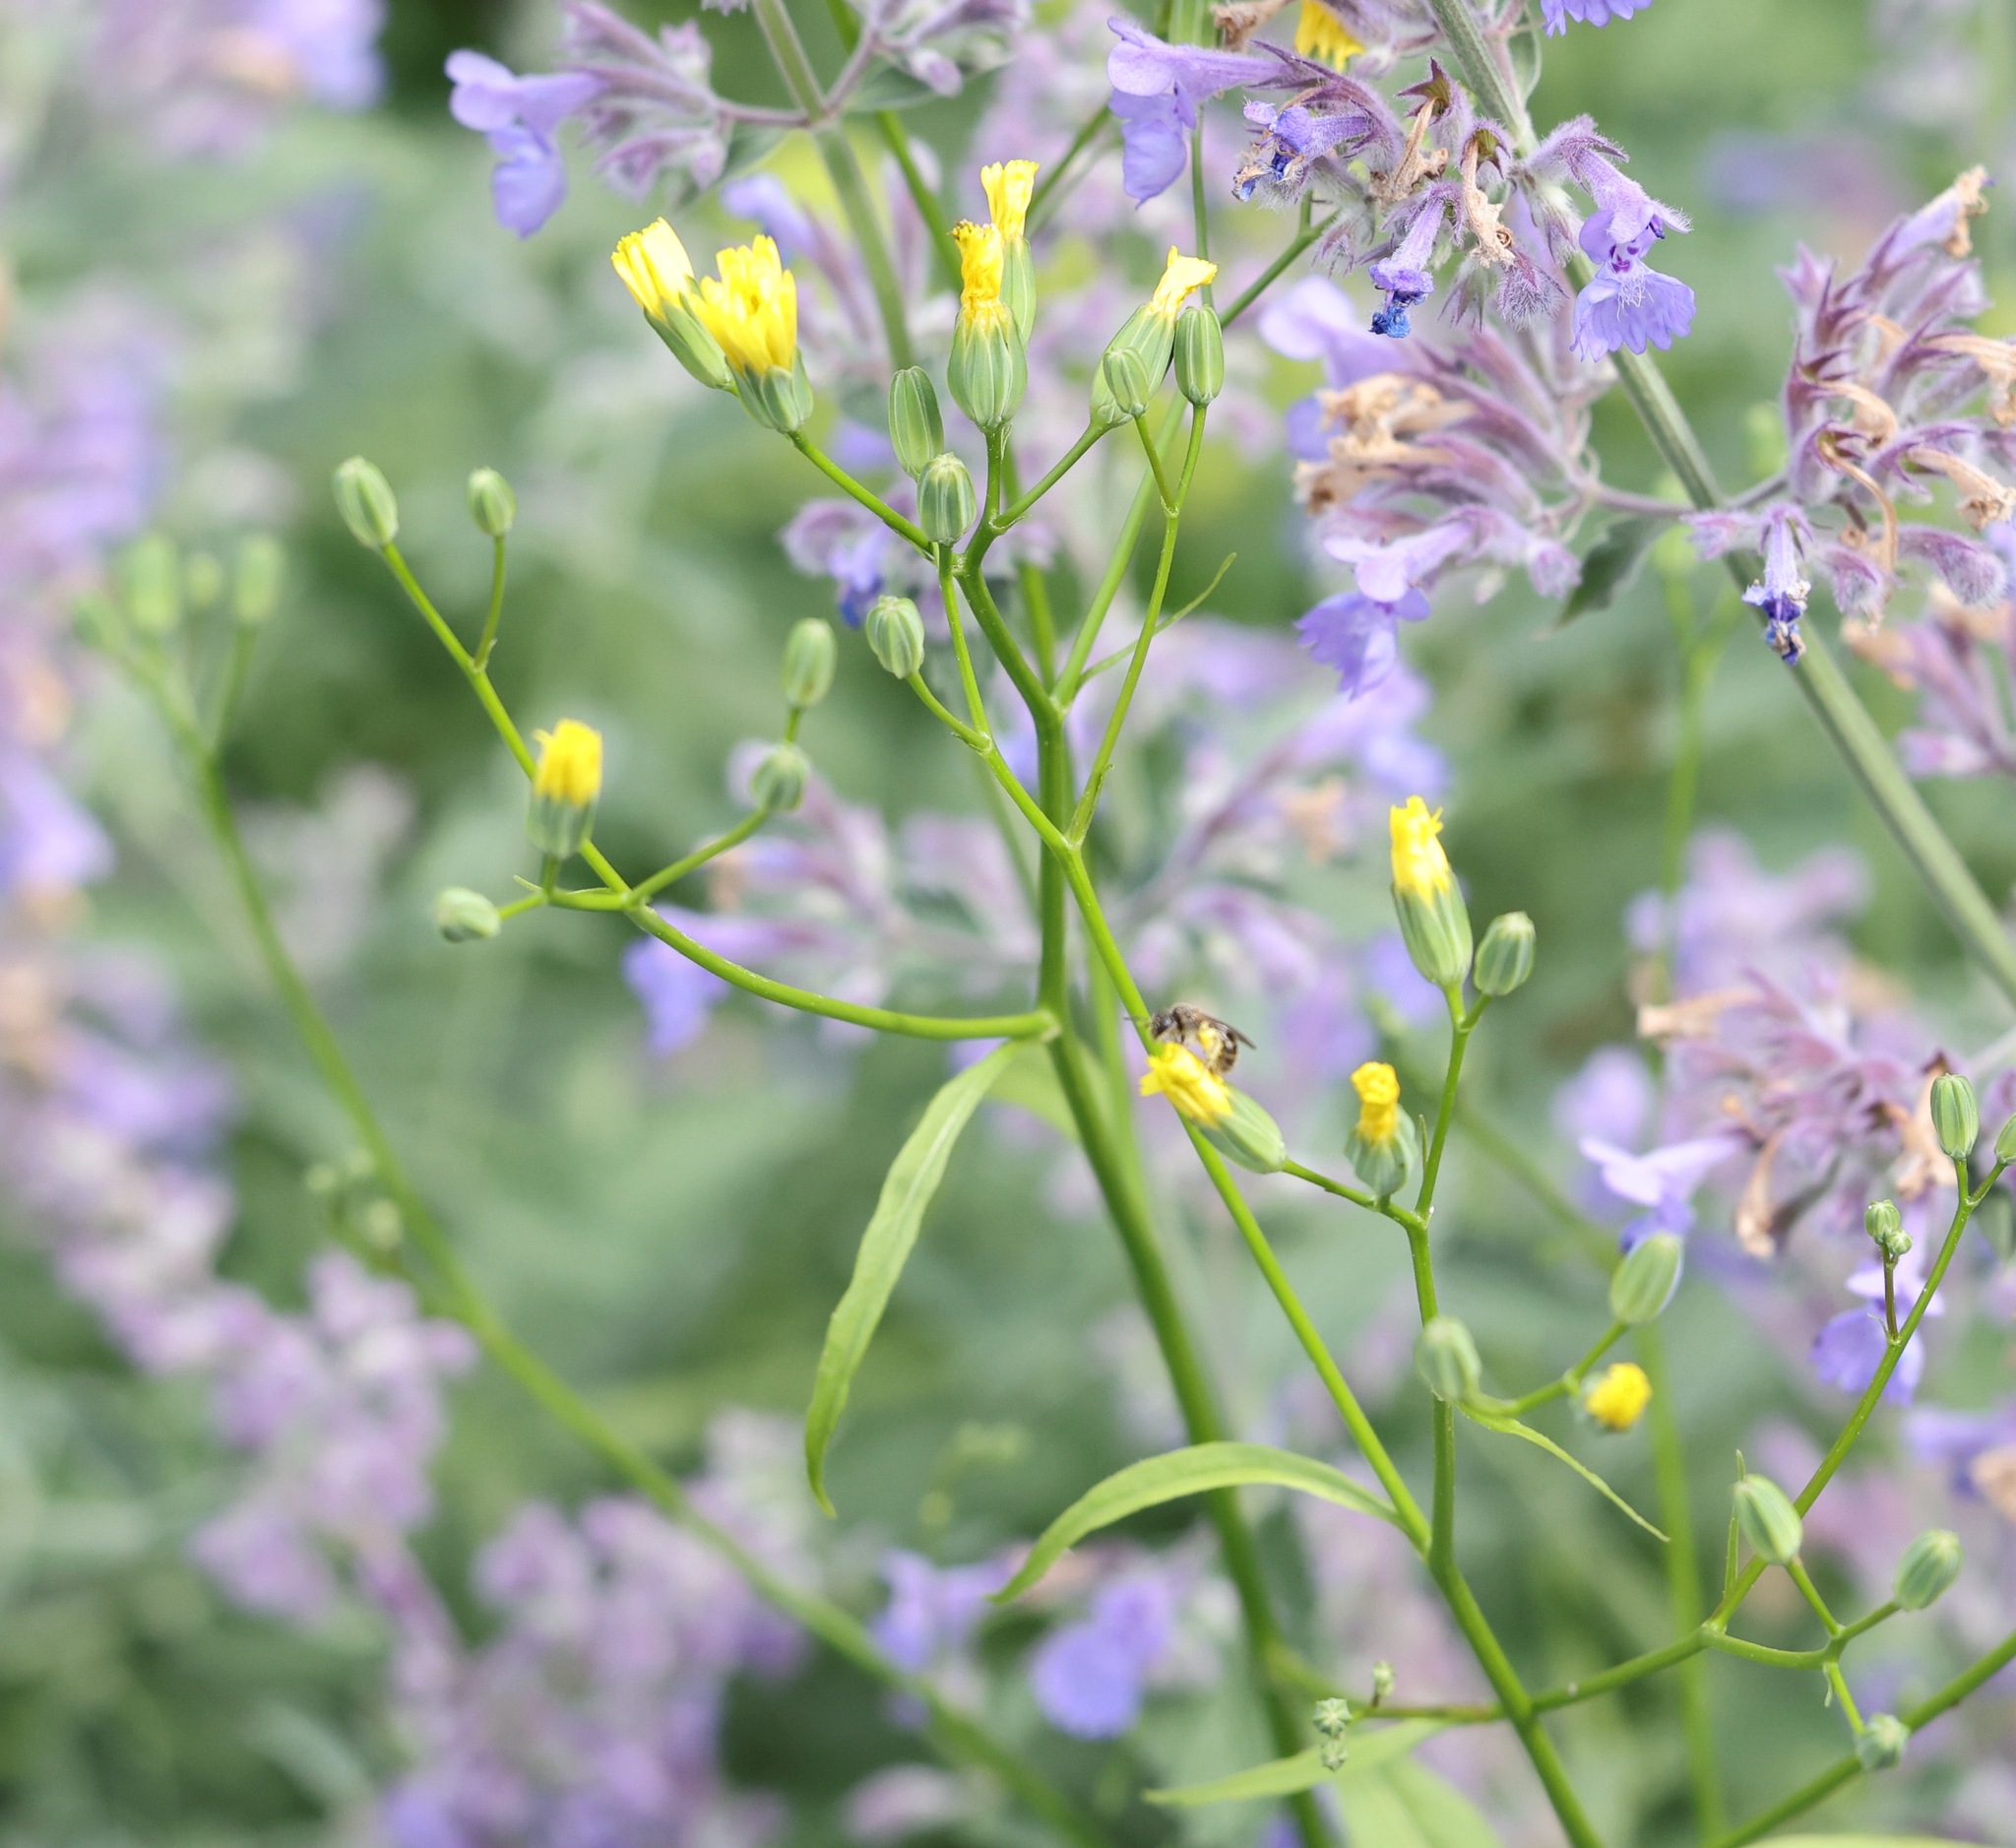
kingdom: Plantae
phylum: Tracheophyta
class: Magnoliopsida
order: Asterales
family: Asteraceae
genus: Lapsana
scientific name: Lapsana communis
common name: Nipplewort
